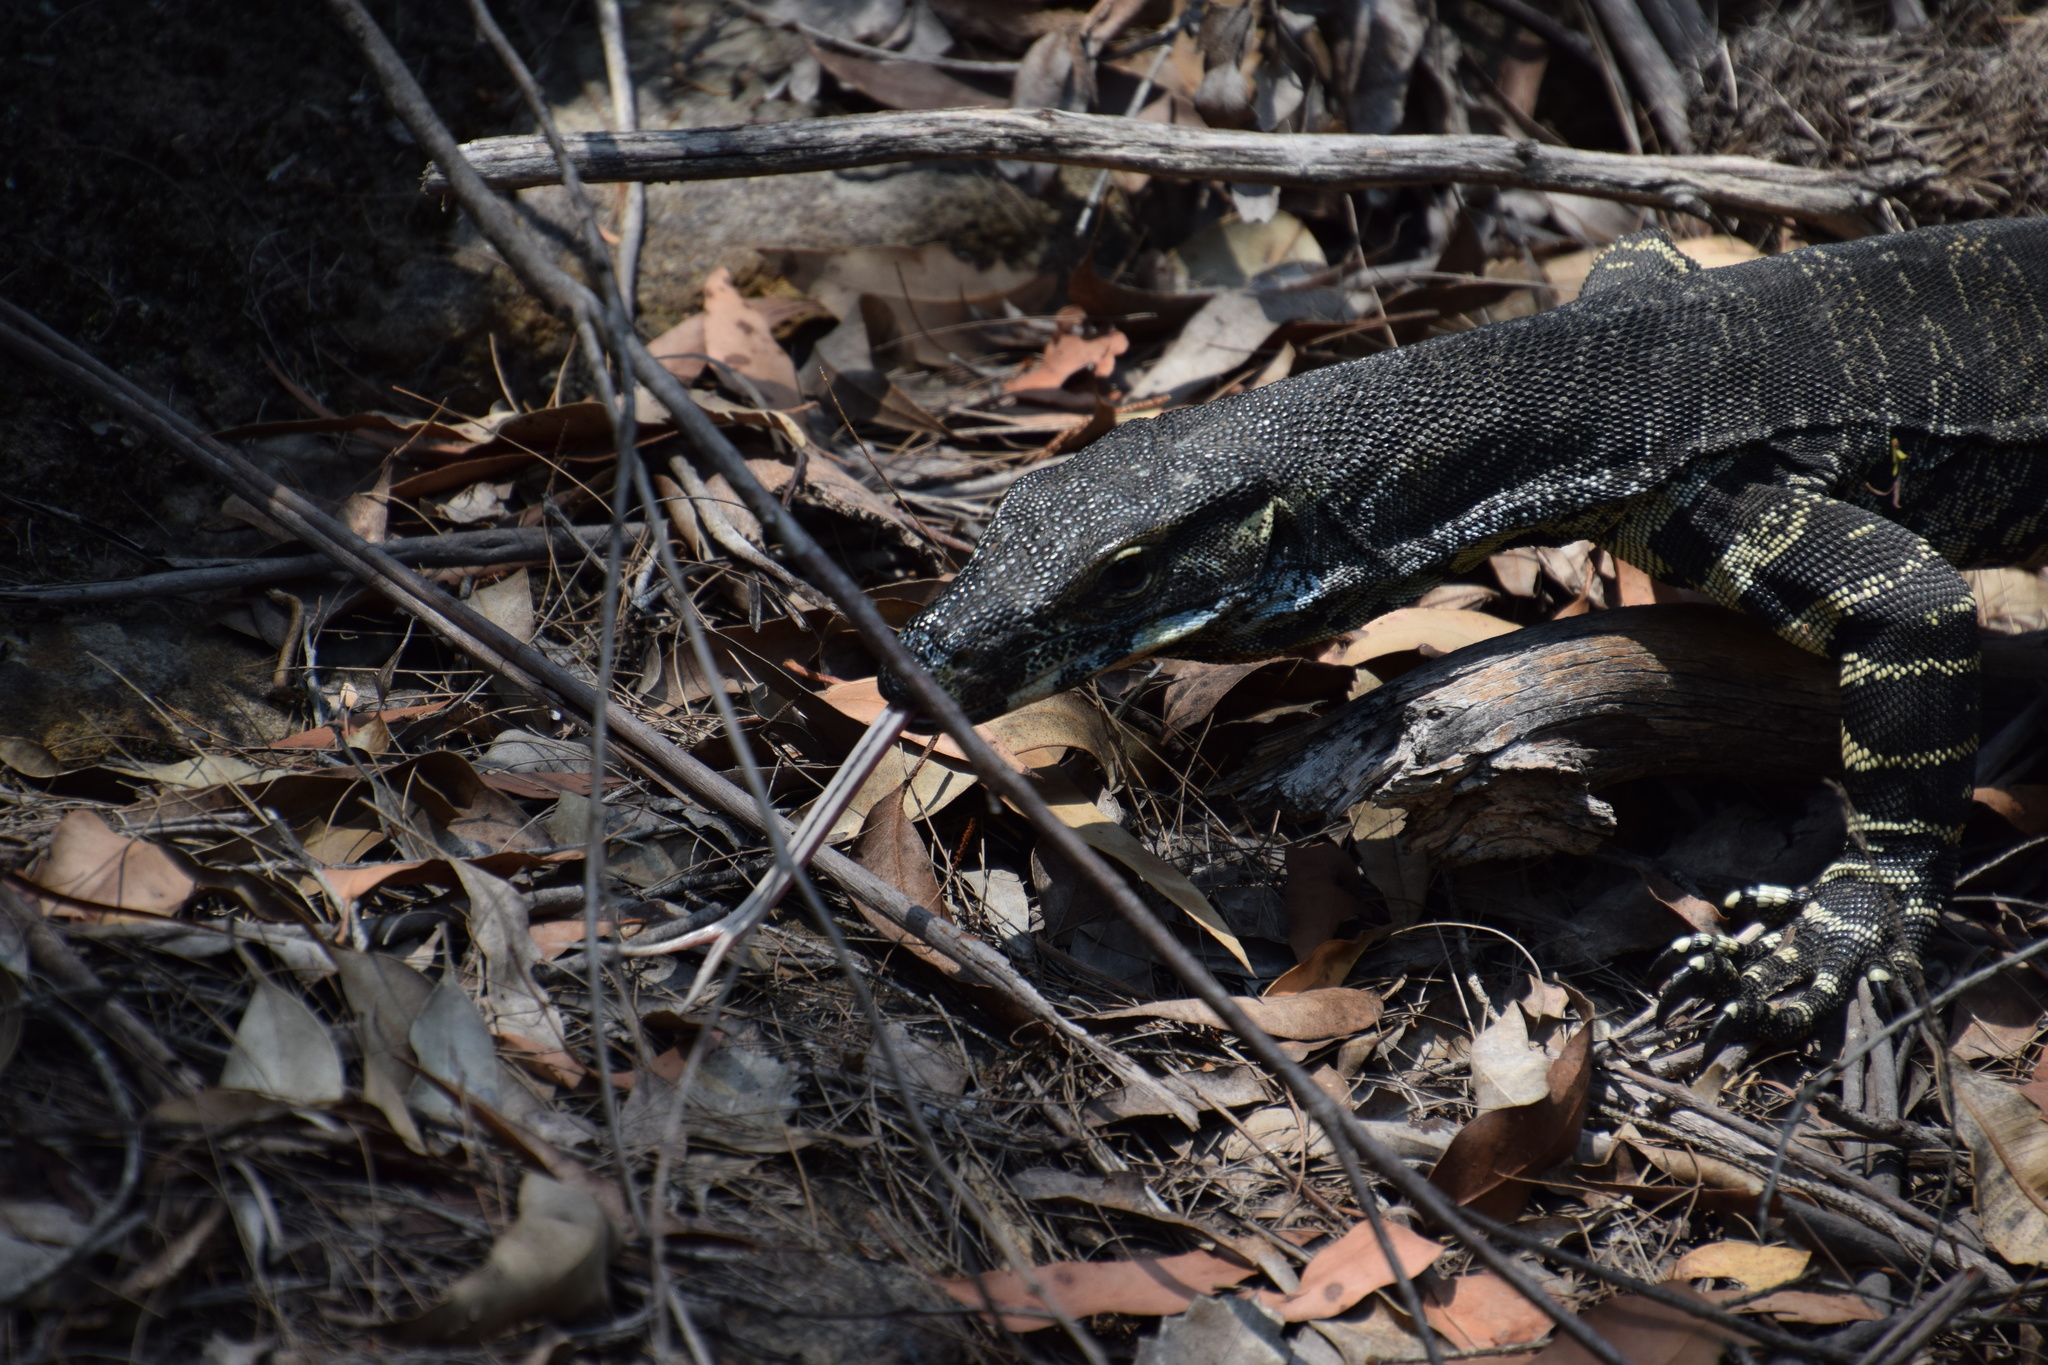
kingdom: Animalia
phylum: Chordata
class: Squamata
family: Varanidae
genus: Varanus
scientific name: Varanus varius
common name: Lace monitor
